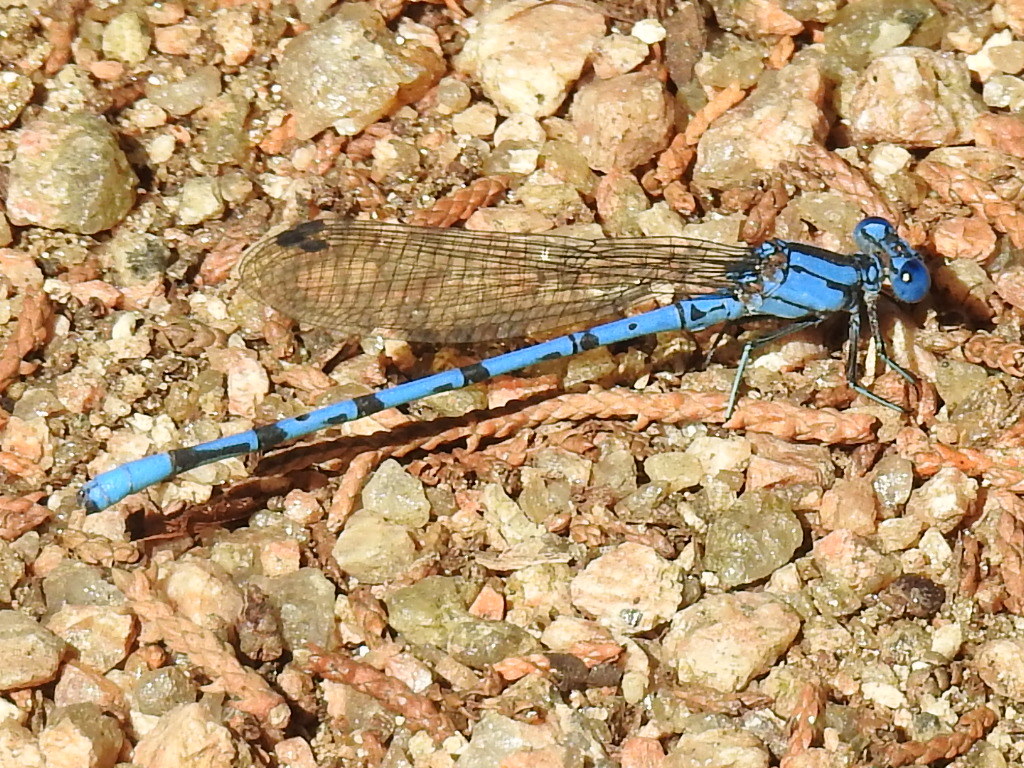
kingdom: Animalia
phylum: Arthropoda
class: Insecta
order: Odonata
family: Coenagrionidae
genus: Argia
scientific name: Argia funebris
